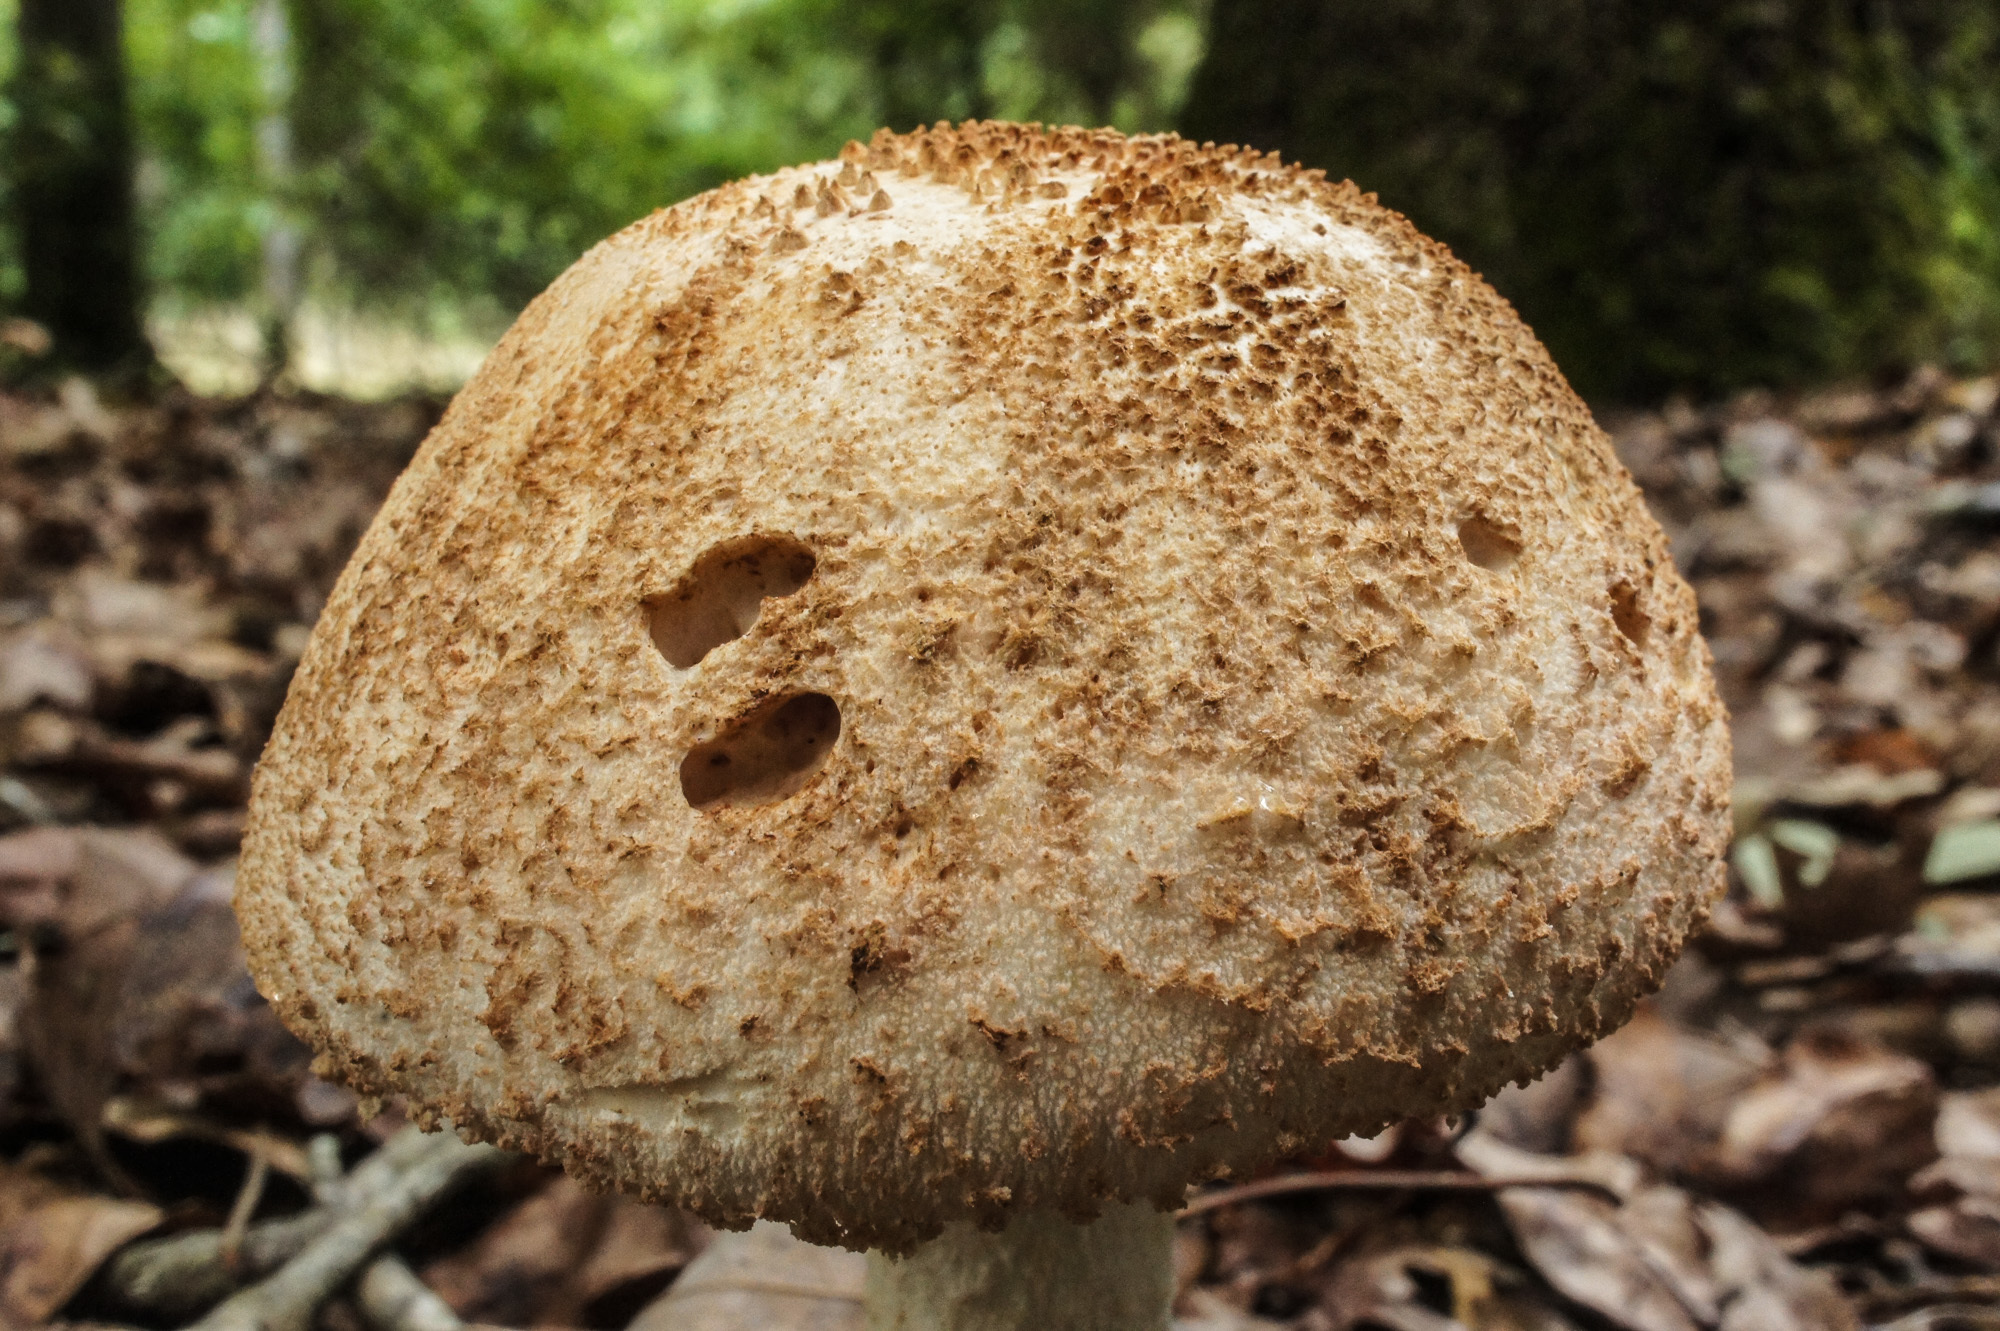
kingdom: Fungi
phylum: Basidiomycota
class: Agaricomycetes
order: Agaricales
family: Amanitaceae
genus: Amanita
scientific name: Amanita daucipes
